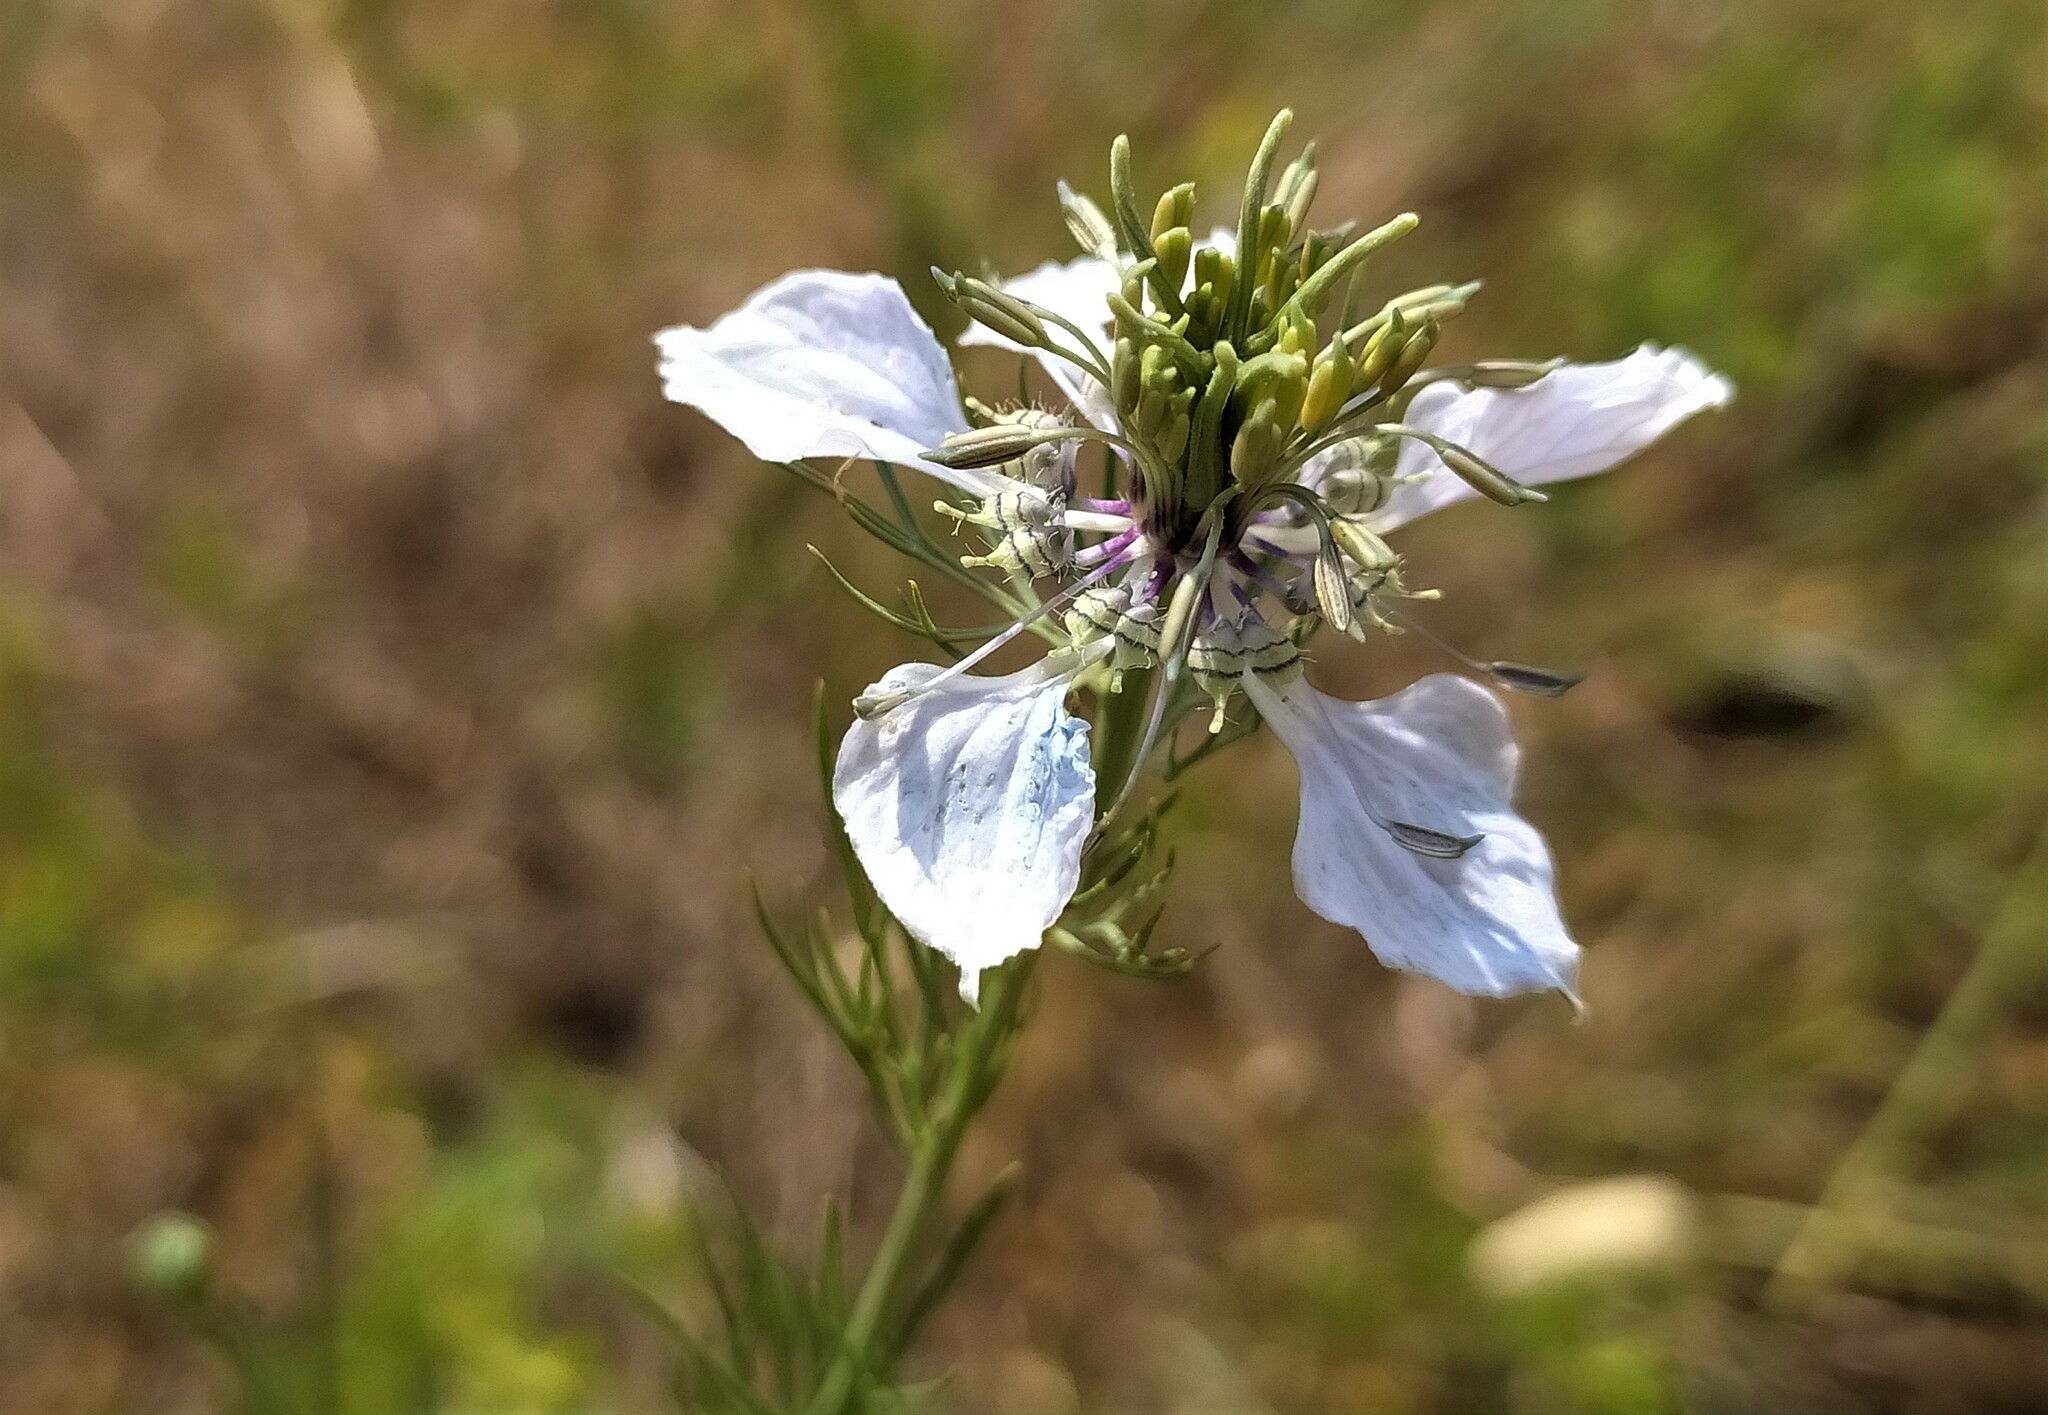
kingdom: Plantae
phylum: Tracheophyta
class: Magnoliopsida
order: Ranunculales
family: Ranunculaceae
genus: Nigella
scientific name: Nigella arvensis
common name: Wild fennel-flower
